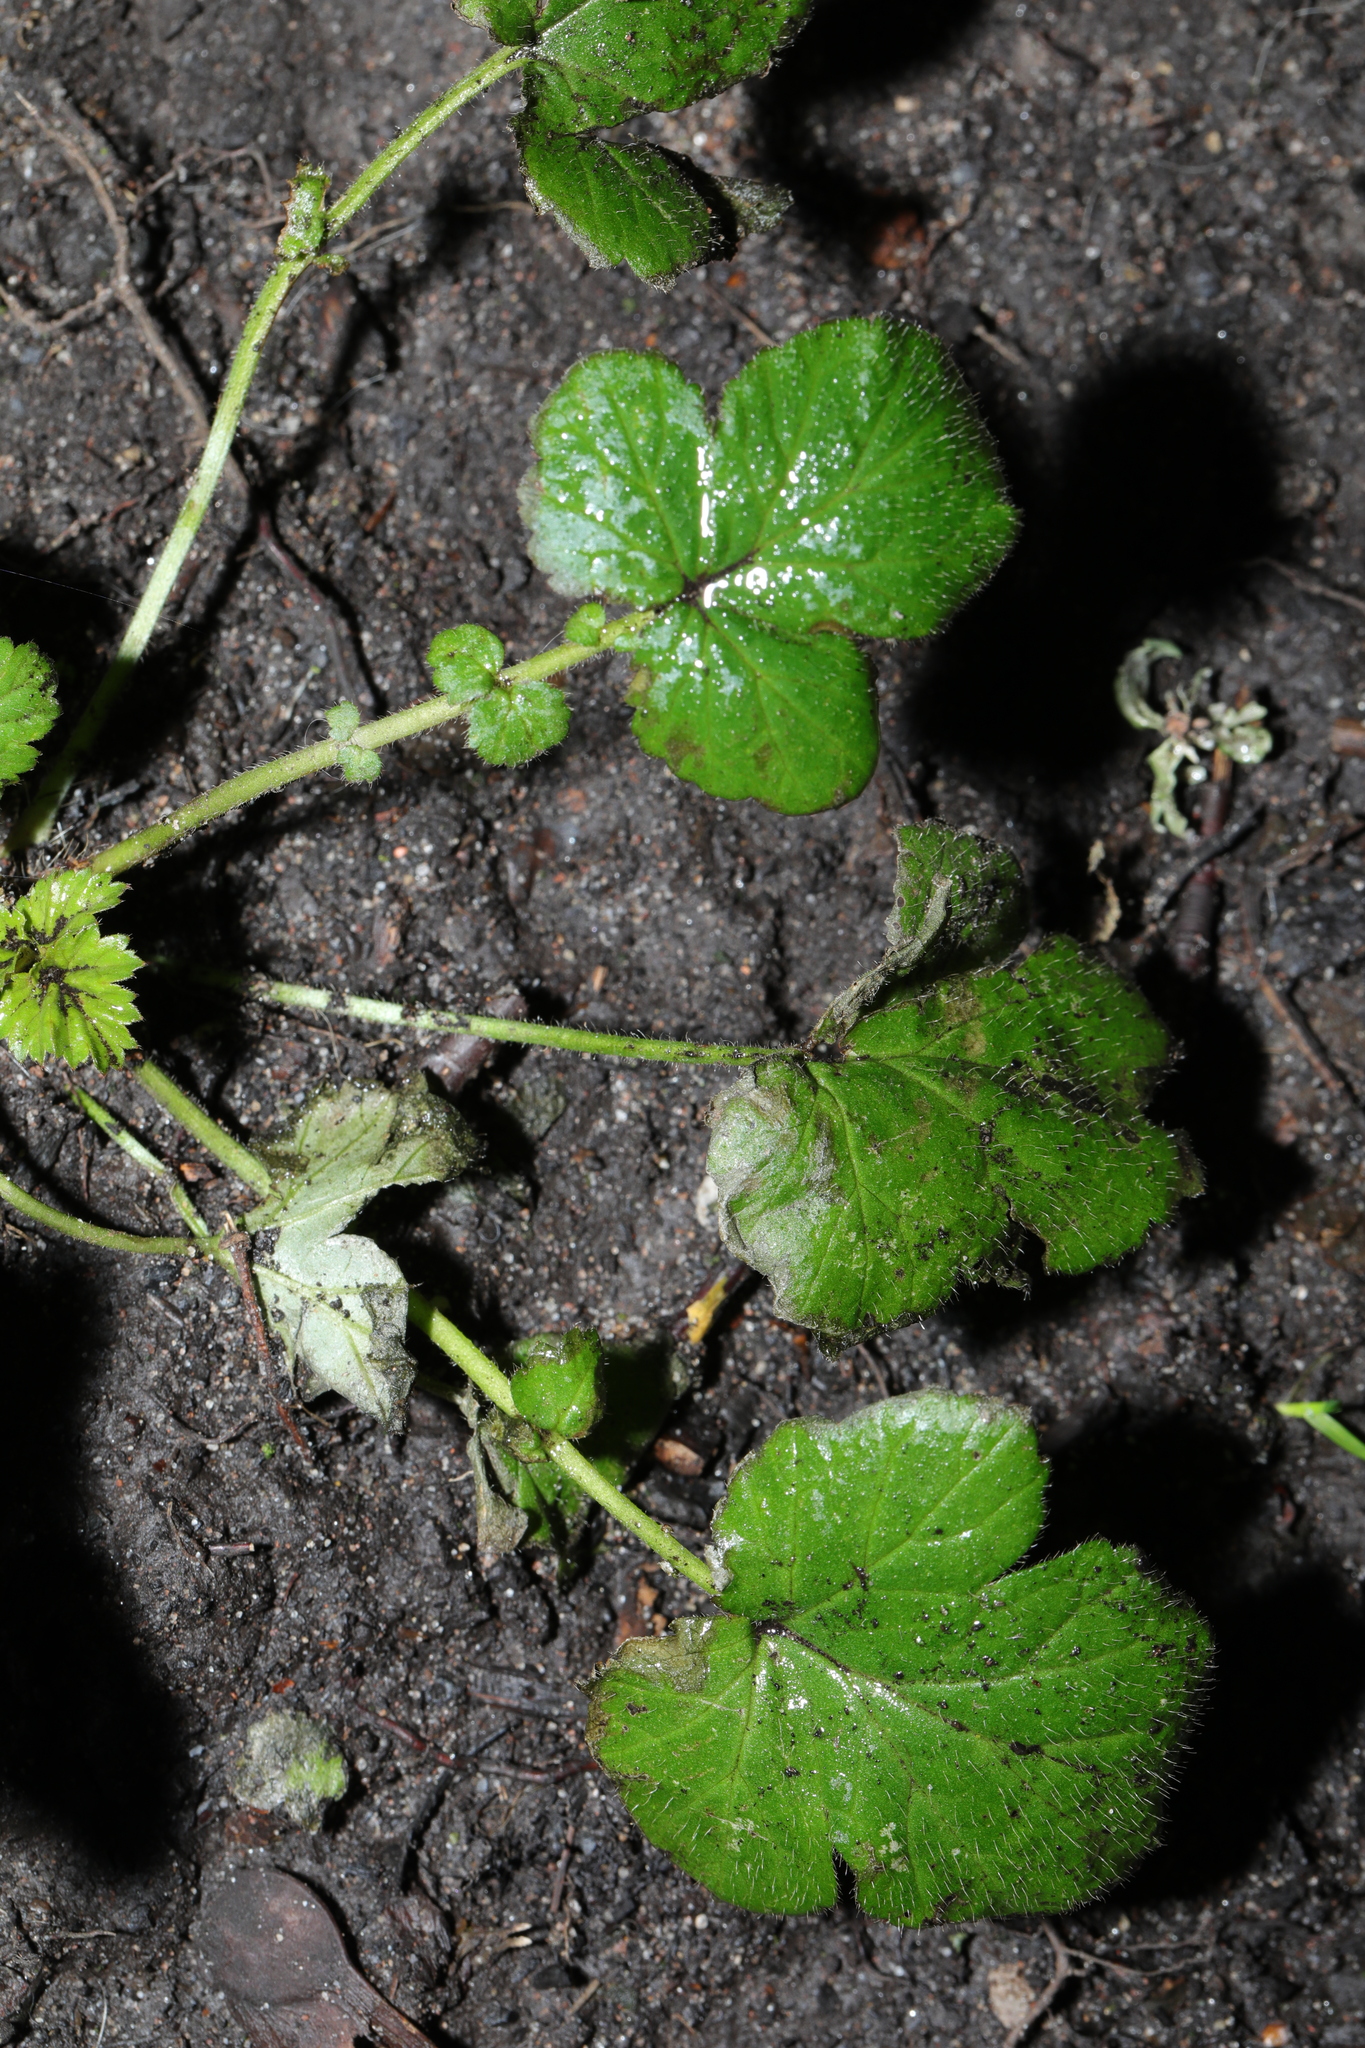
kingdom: Plantae
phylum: Tracheophyta
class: Magnoliopsida
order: Rosales
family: Rosaceae
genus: Geum
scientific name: Geum urbanum
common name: Wood avens
